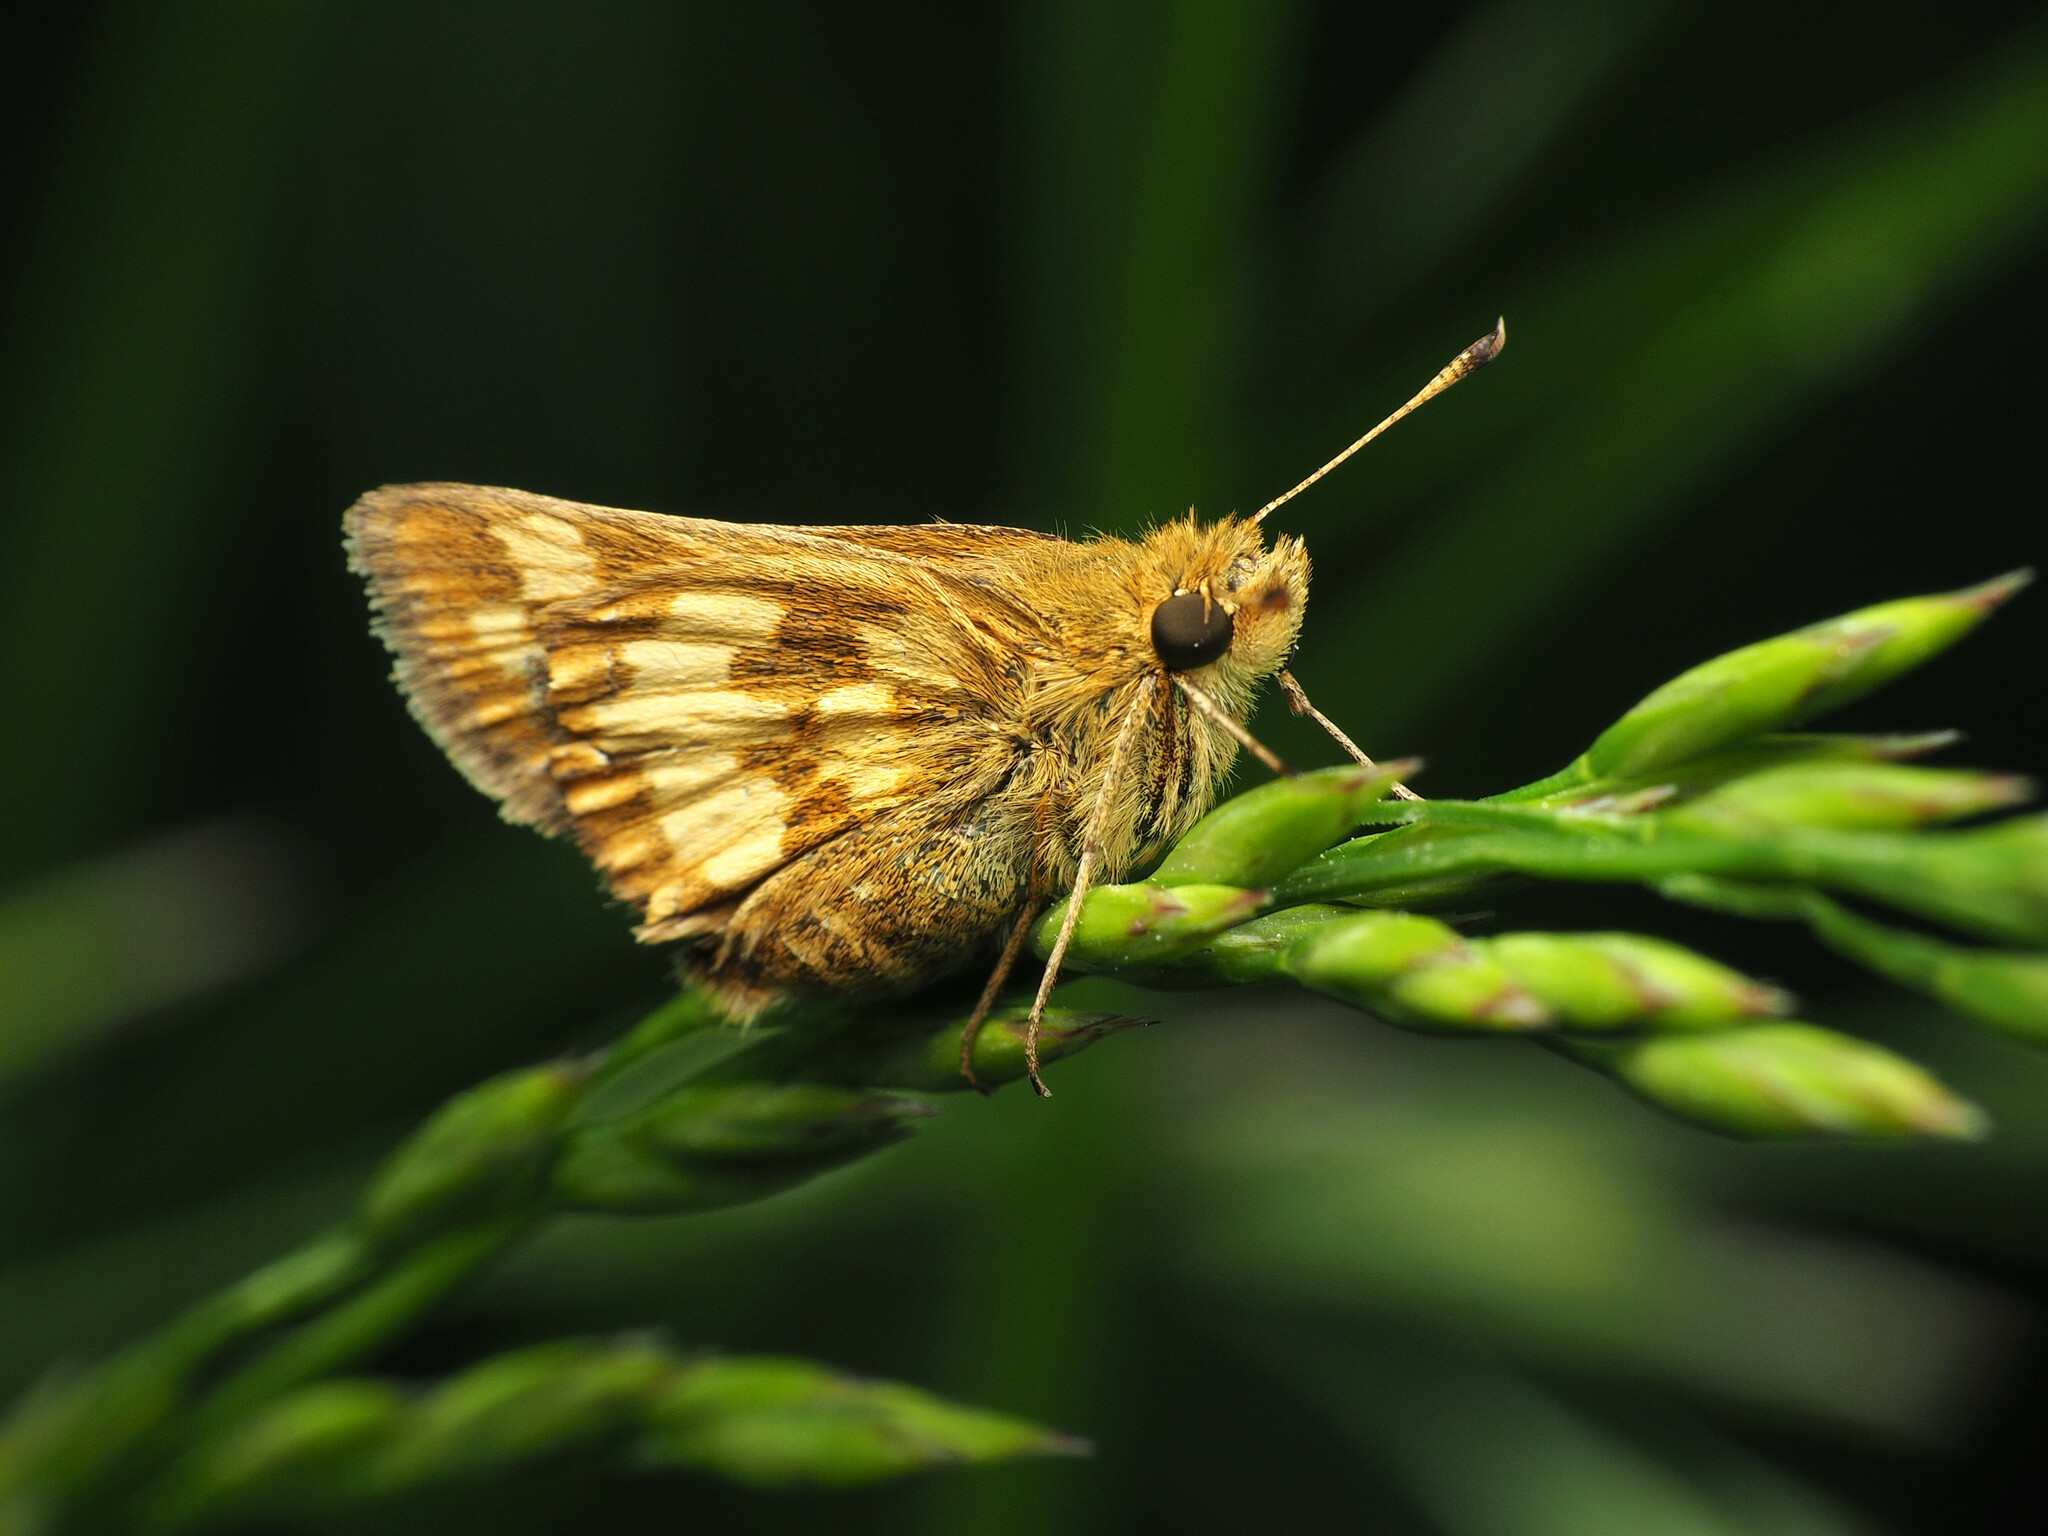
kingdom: Animalia
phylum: Arthropoda
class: Insecta
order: Lepidoptera
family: Hesperiidae
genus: Polites
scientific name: Polites coras
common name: Peck's skipper
